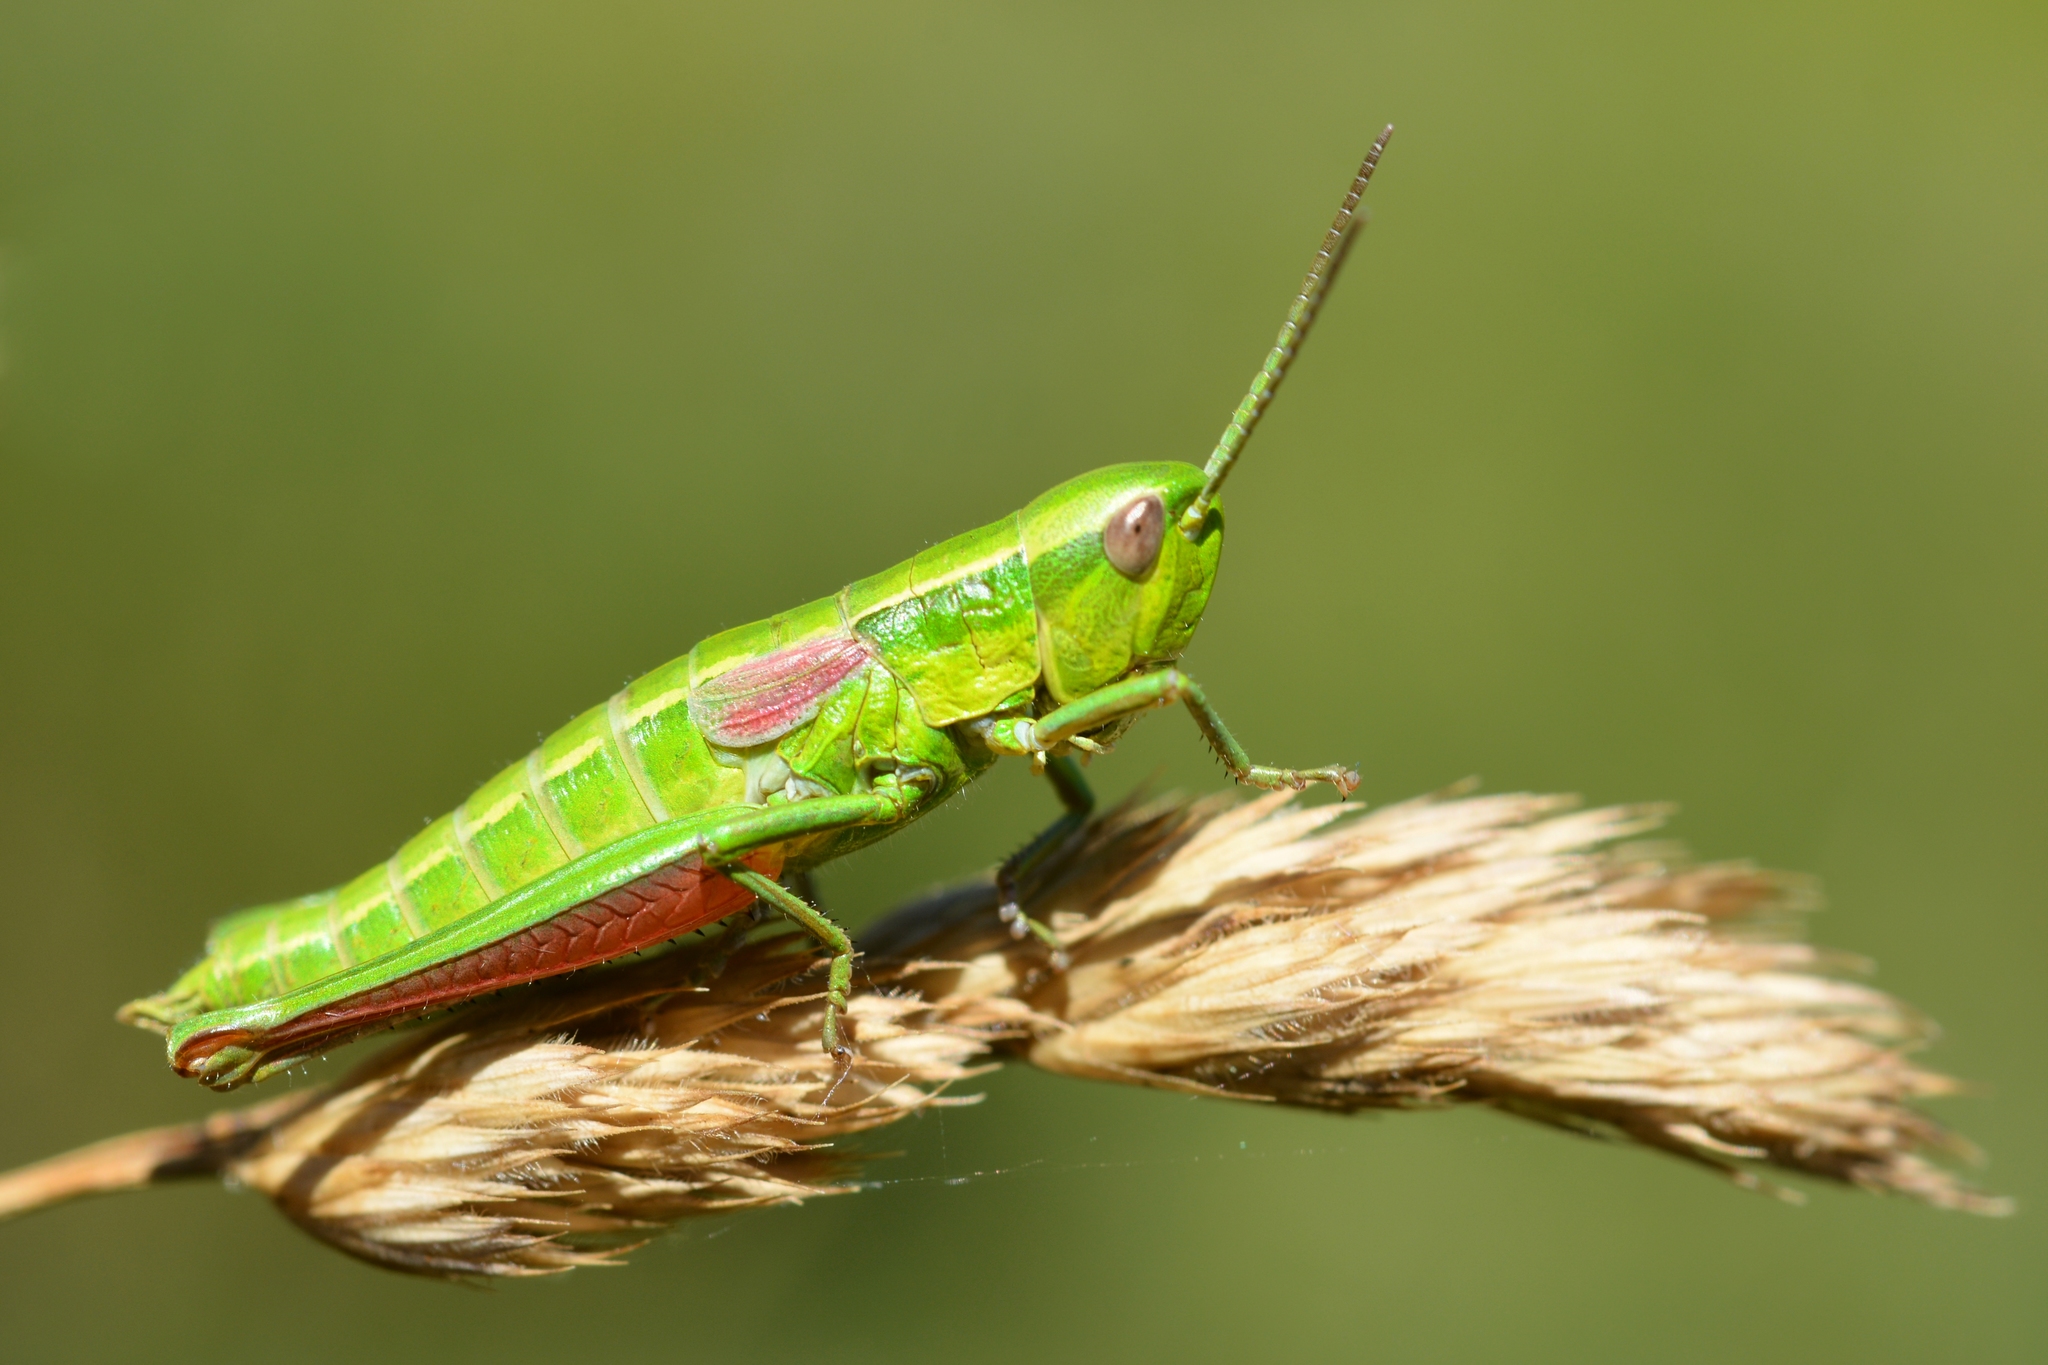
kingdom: Animalia
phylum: Arthropoda
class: Insecta
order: Orthoptera
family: Acrididae
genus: Euthystira
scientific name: Euthystira brachyptera
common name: Small gold grasshopper
